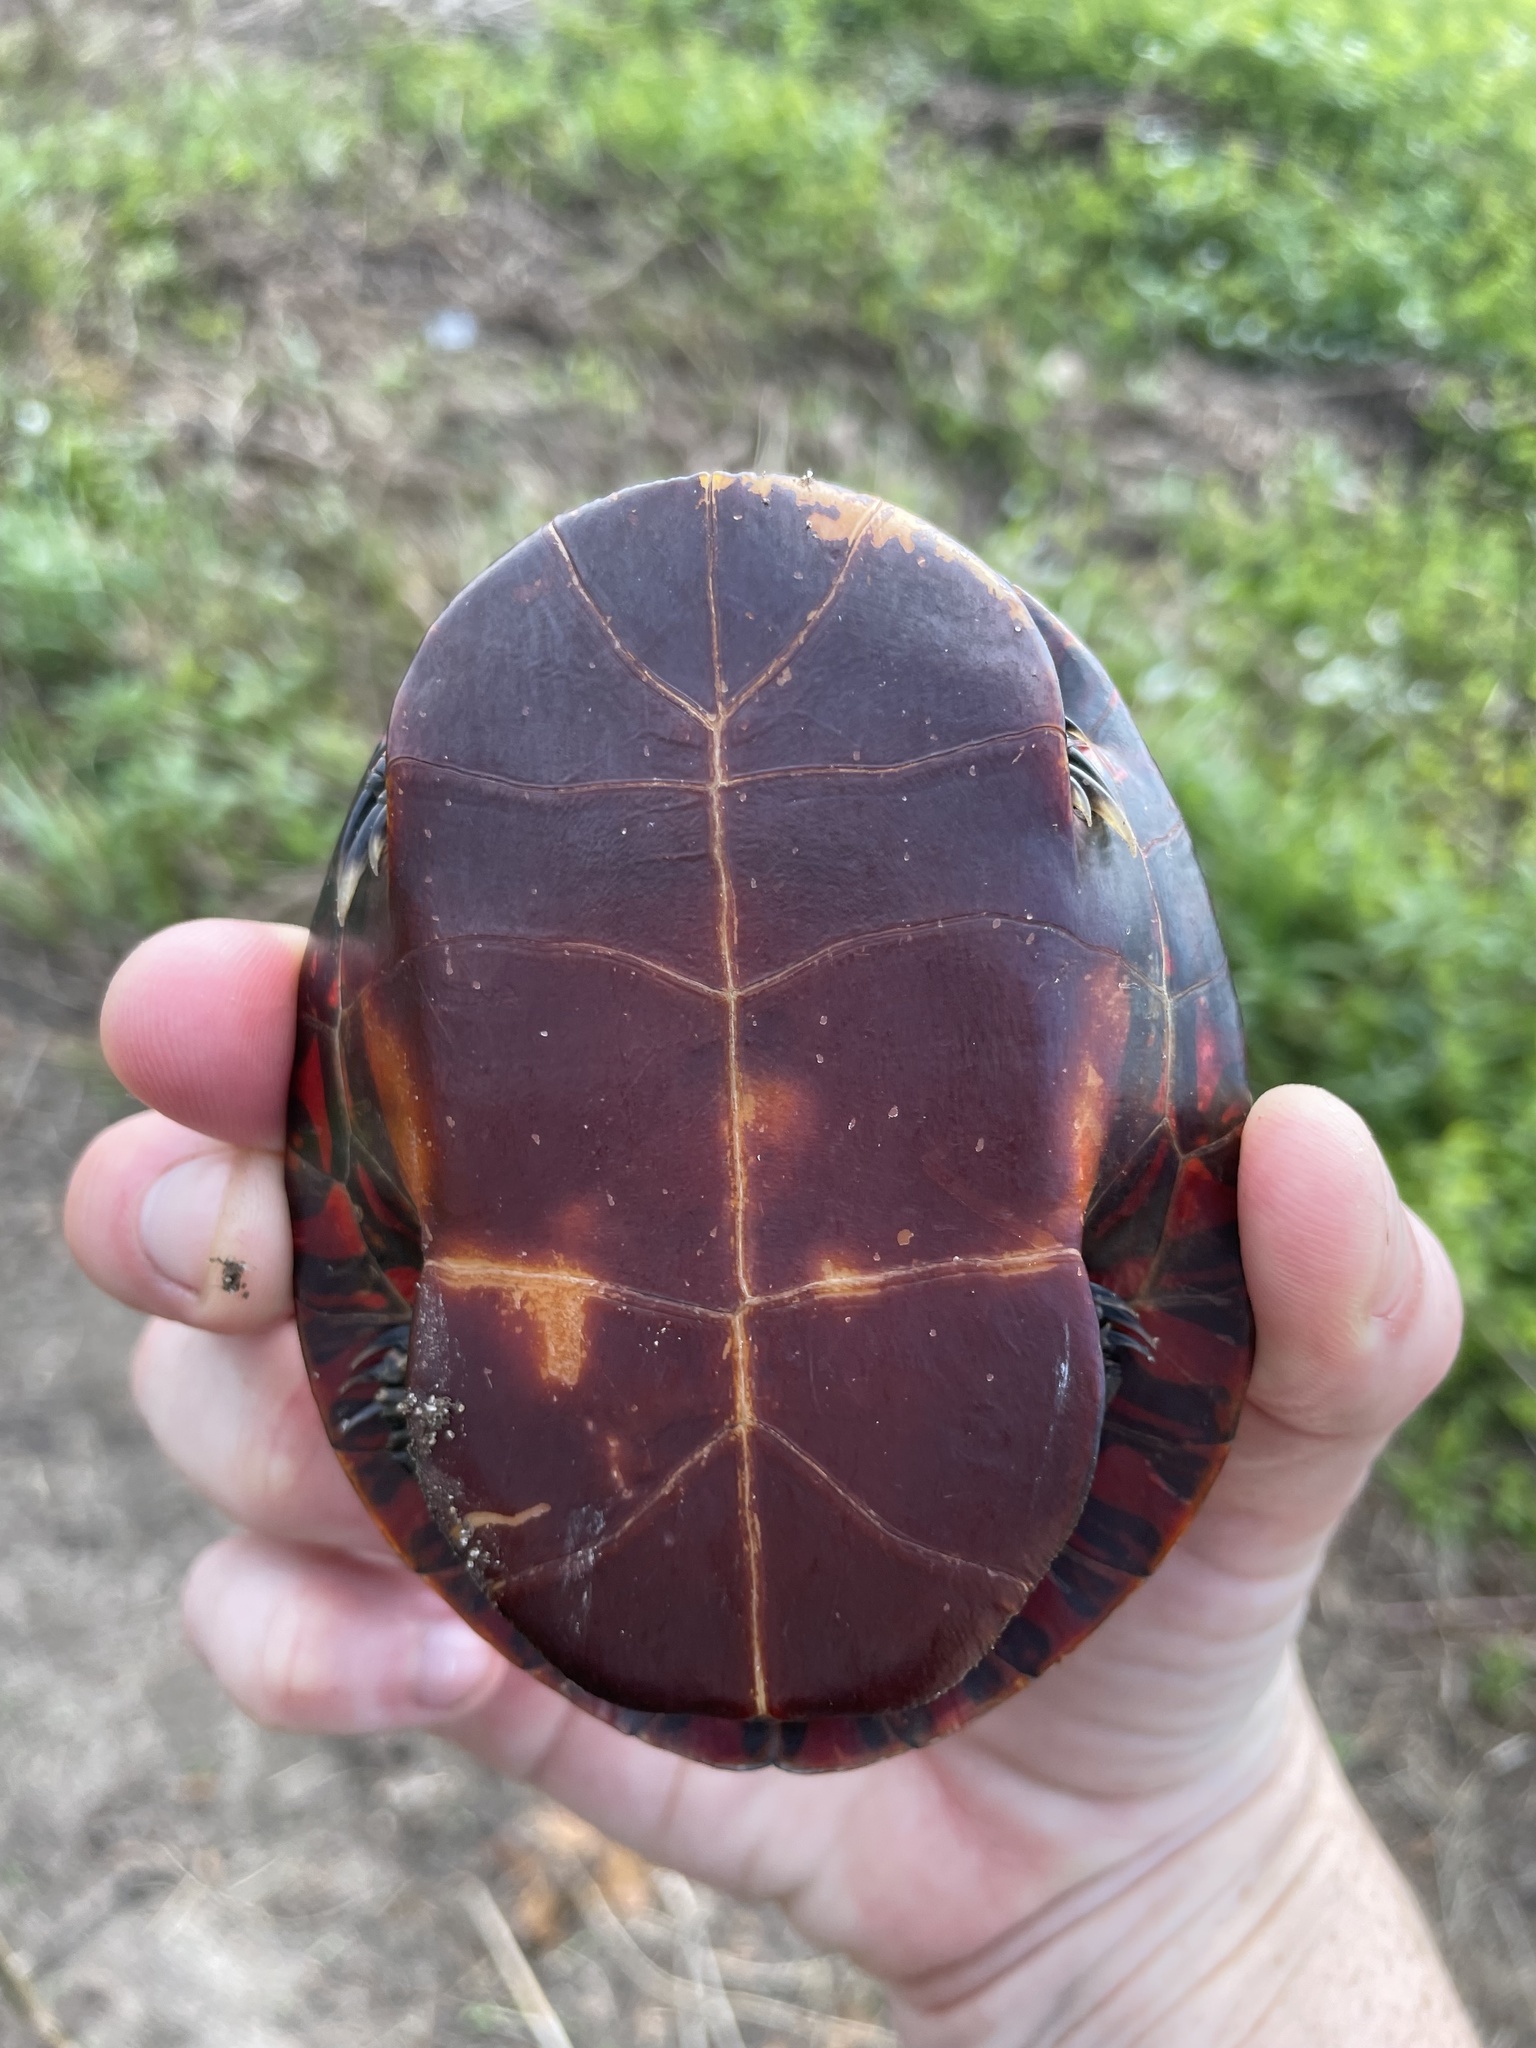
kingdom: Animalia
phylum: Chordata
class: Testudines
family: Emydidae
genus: Chrysemys
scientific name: Chrysemys picta
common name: Painted turtle
